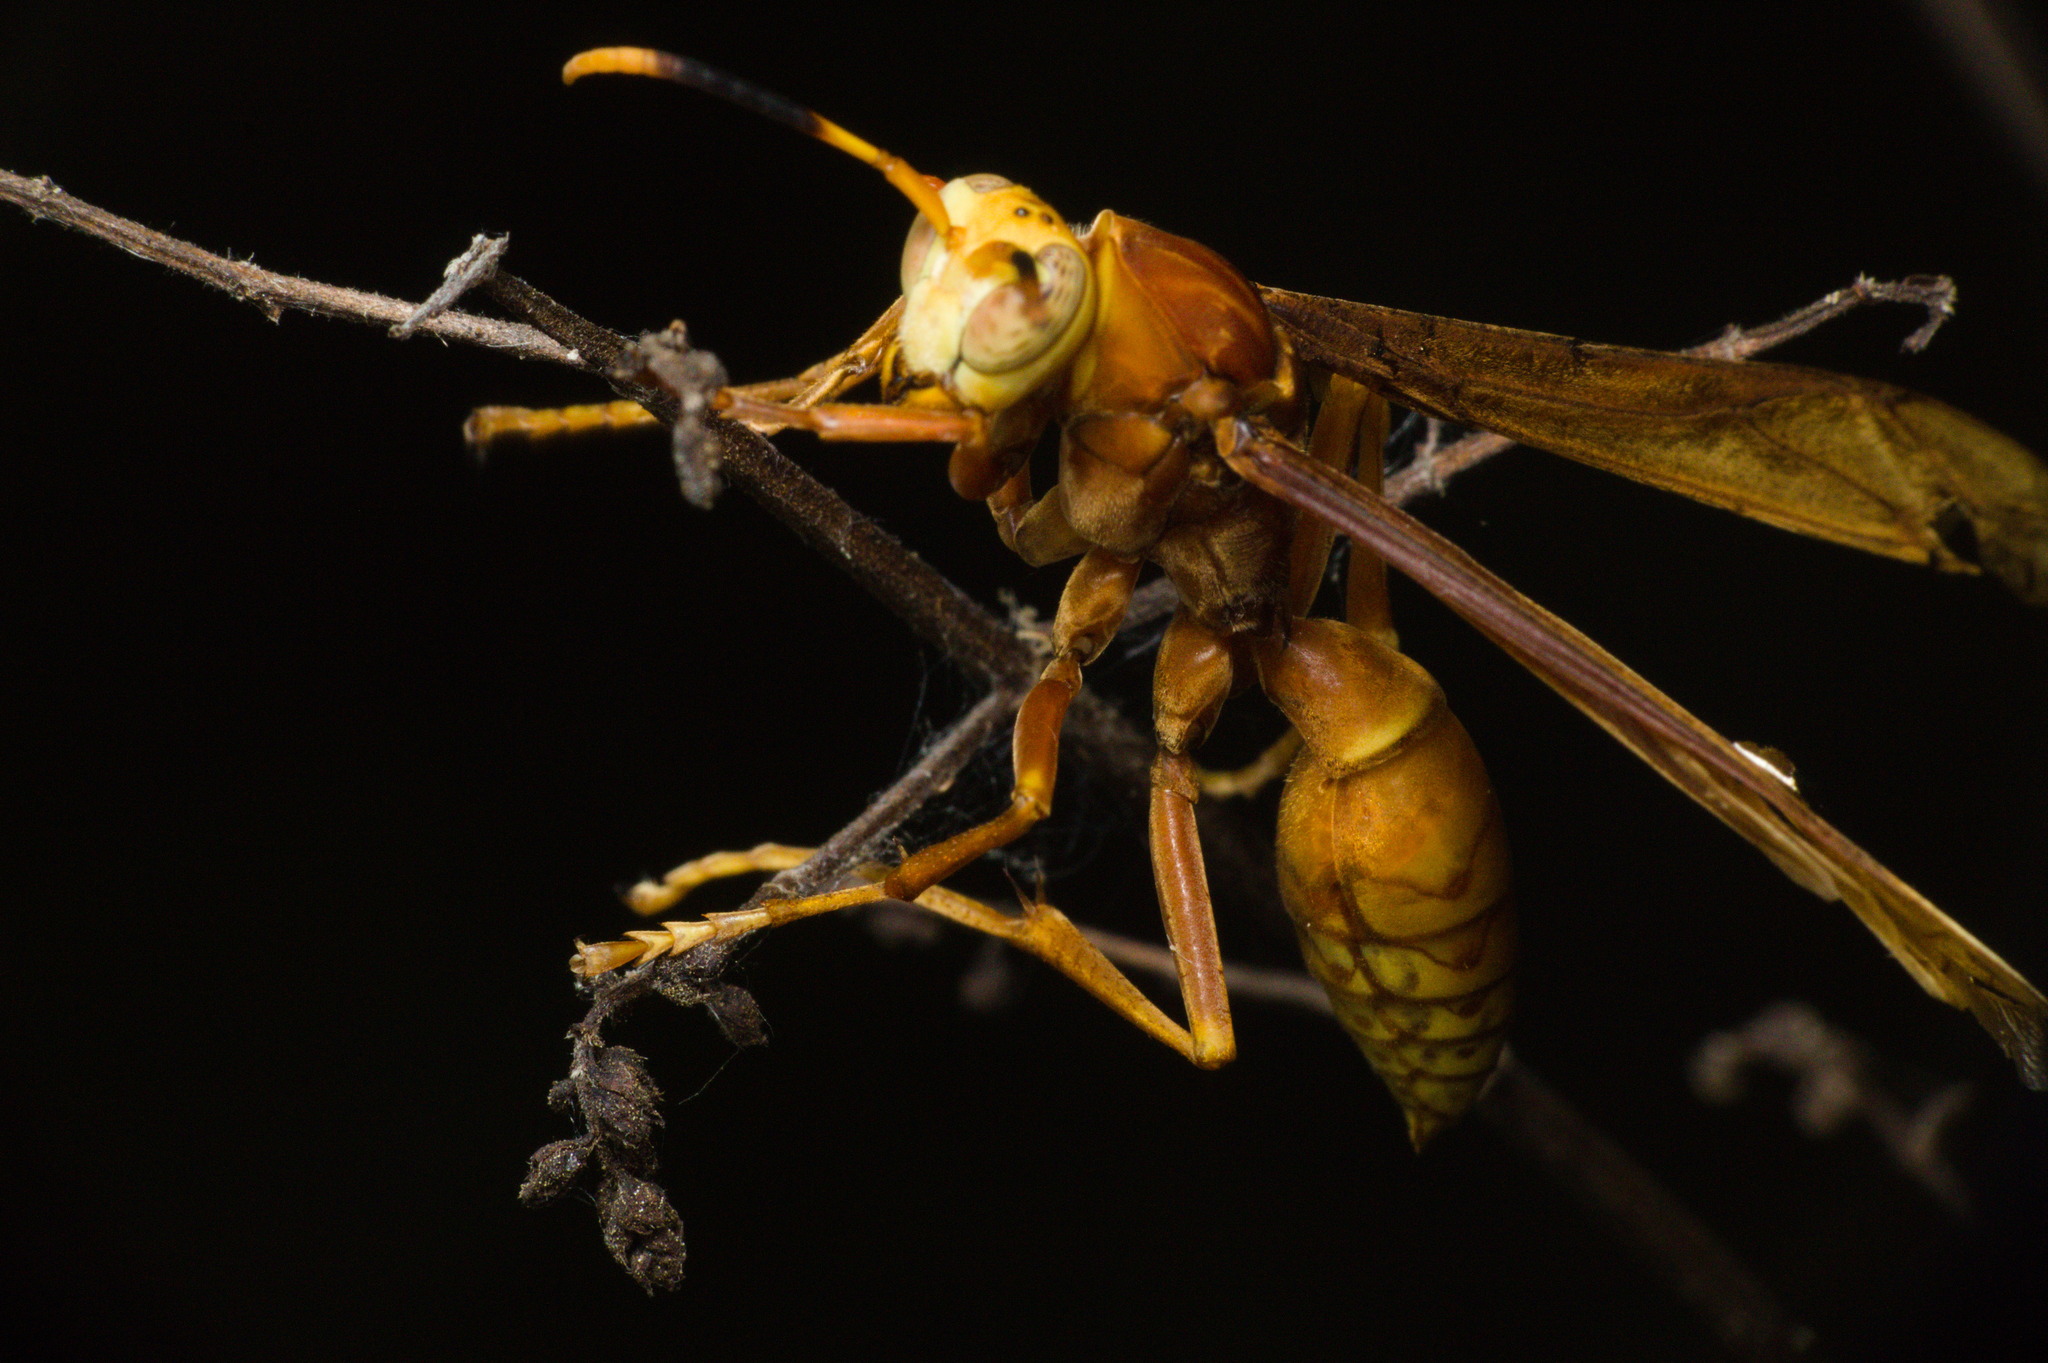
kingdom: Animalia
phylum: Arthropoda
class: Insecta
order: Hymenoptera
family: Eumenidae
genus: Polistes
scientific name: Polistes cavapyta
